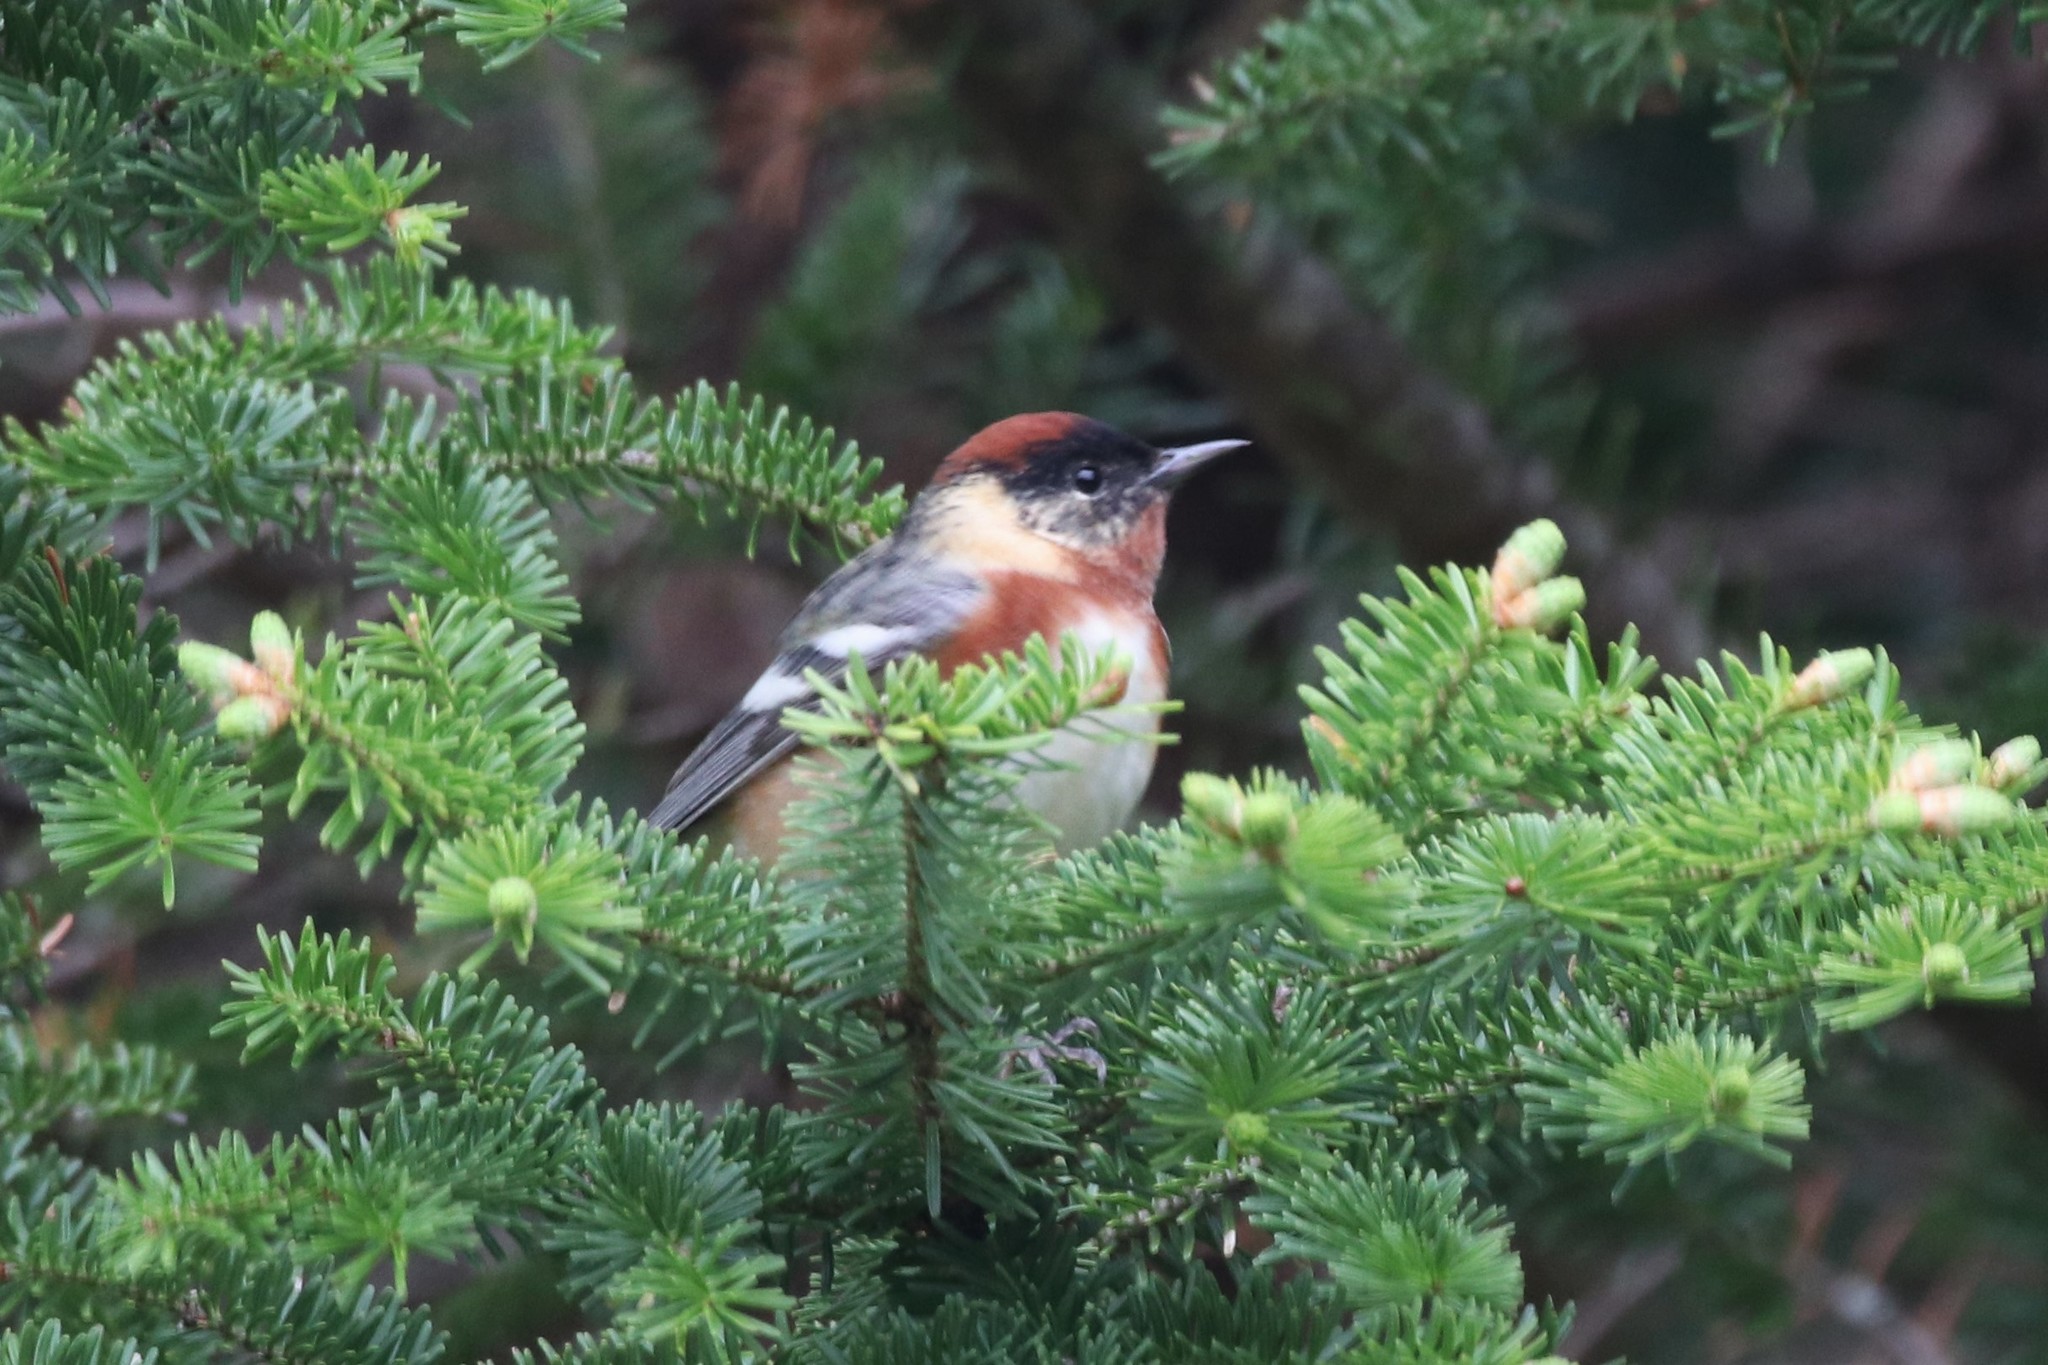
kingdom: Animalia
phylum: Chordata
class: Aves
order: Passeriformes
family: Parulidae
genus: Setophaga
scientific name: Setophaga castanea
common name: Bay-breasted warbler
